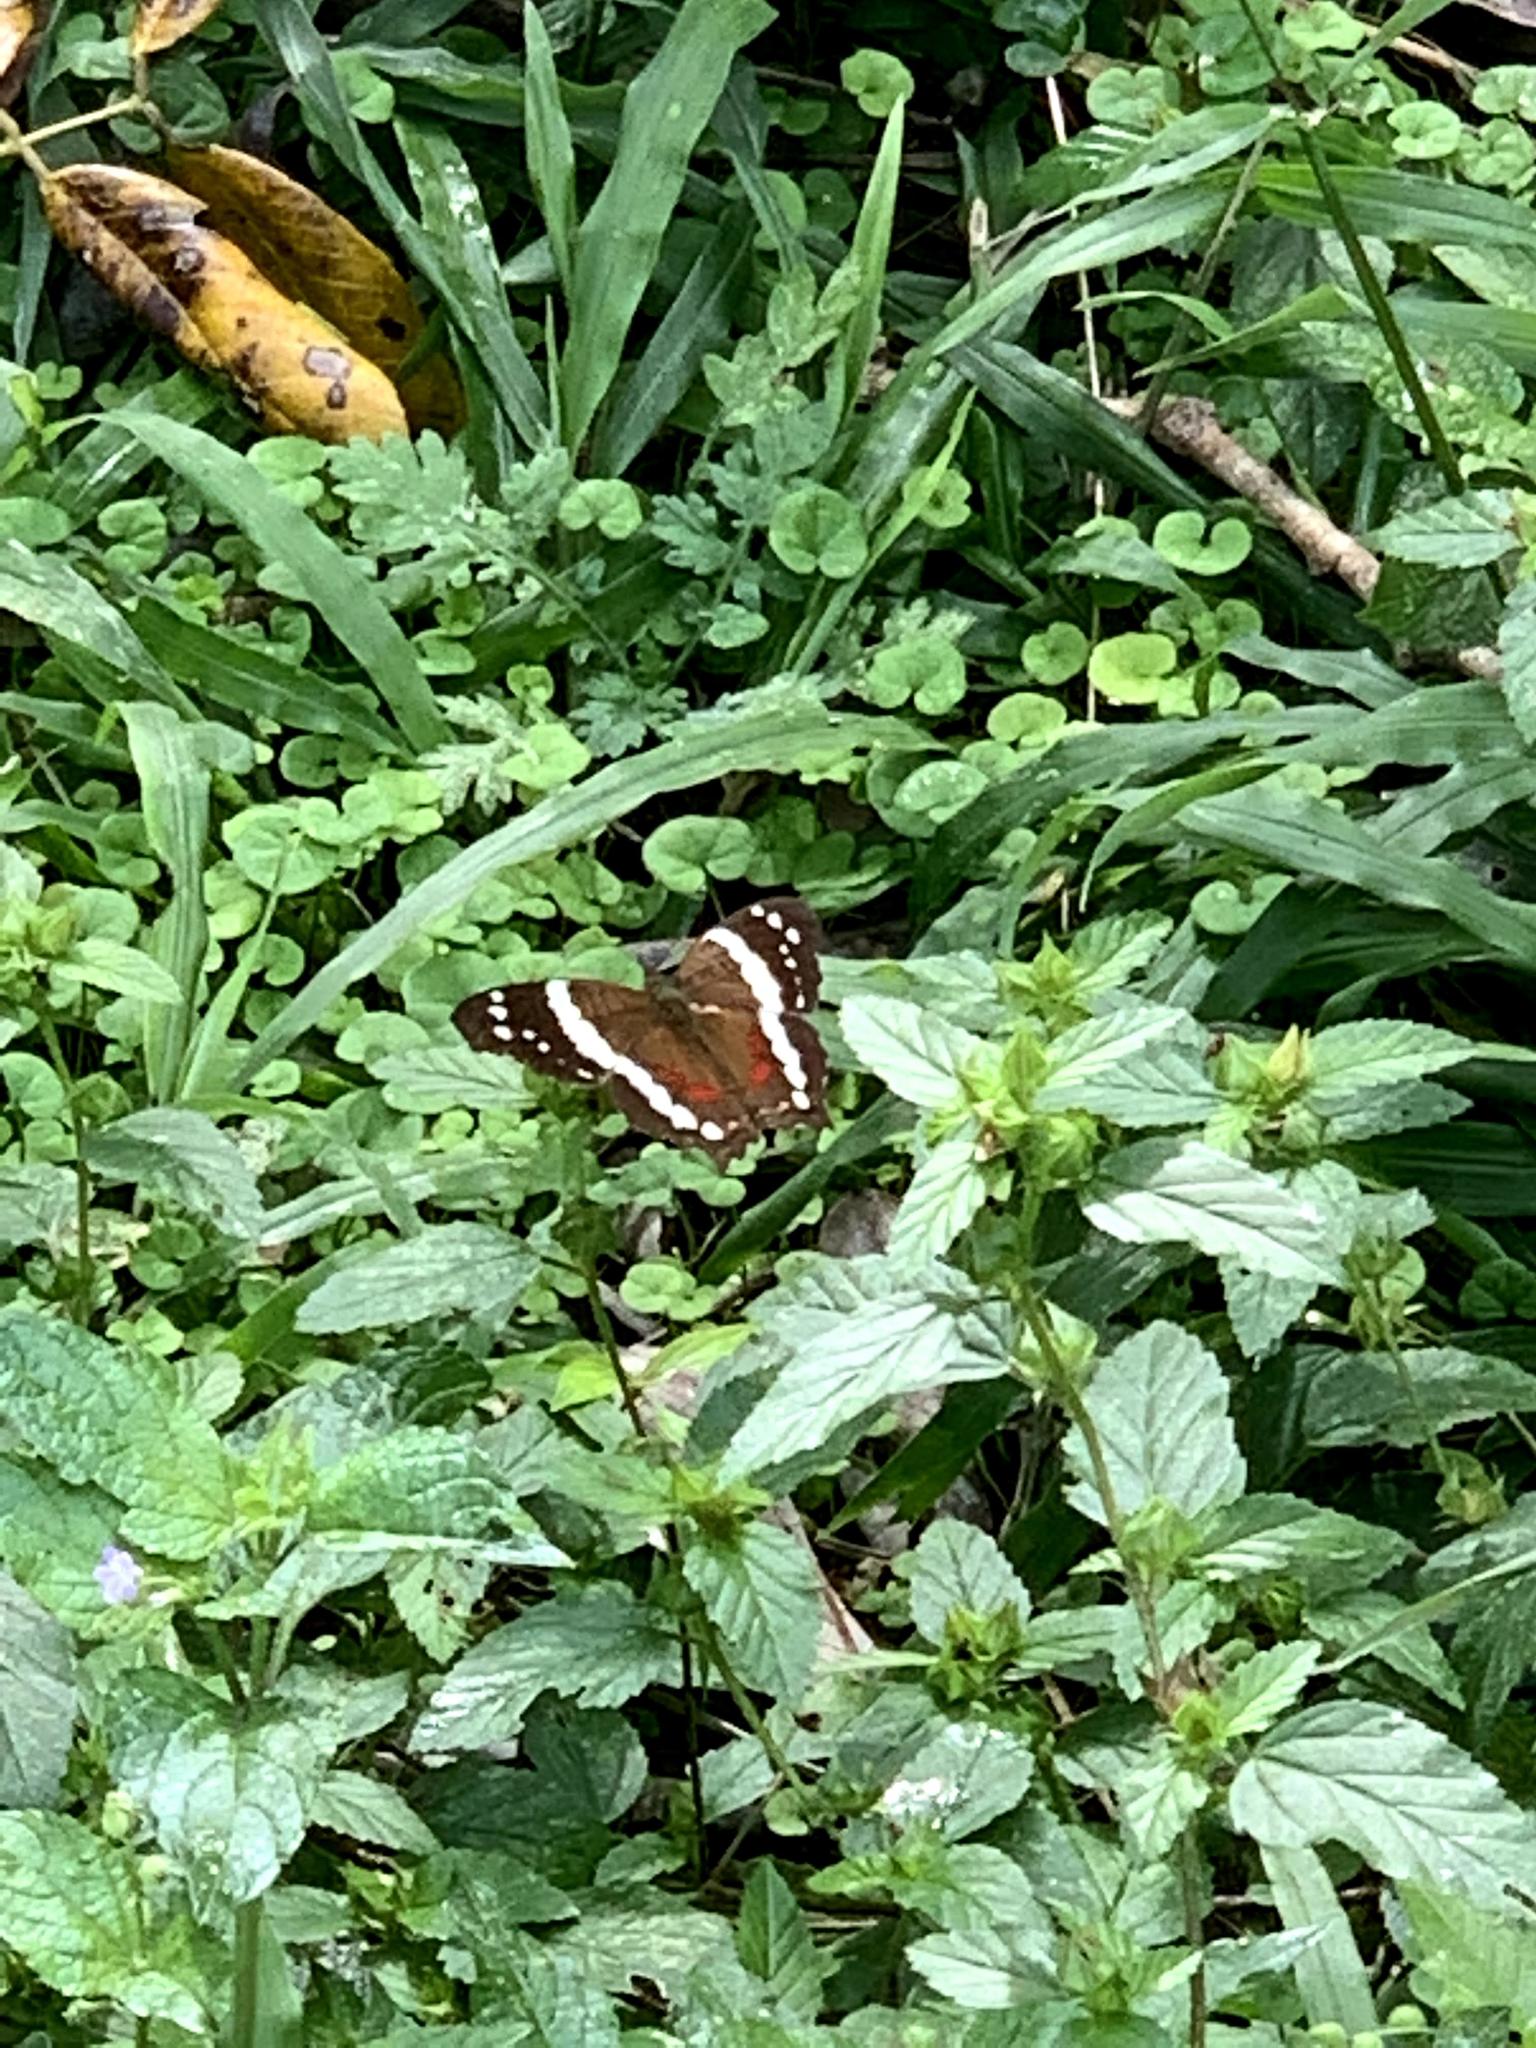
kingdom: Animalia
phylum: Arthropoda
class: Insecta
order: Lepidoptera
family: Nymphalidae
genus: Anartia
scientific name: Anartia fatima
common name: Banded peacock
